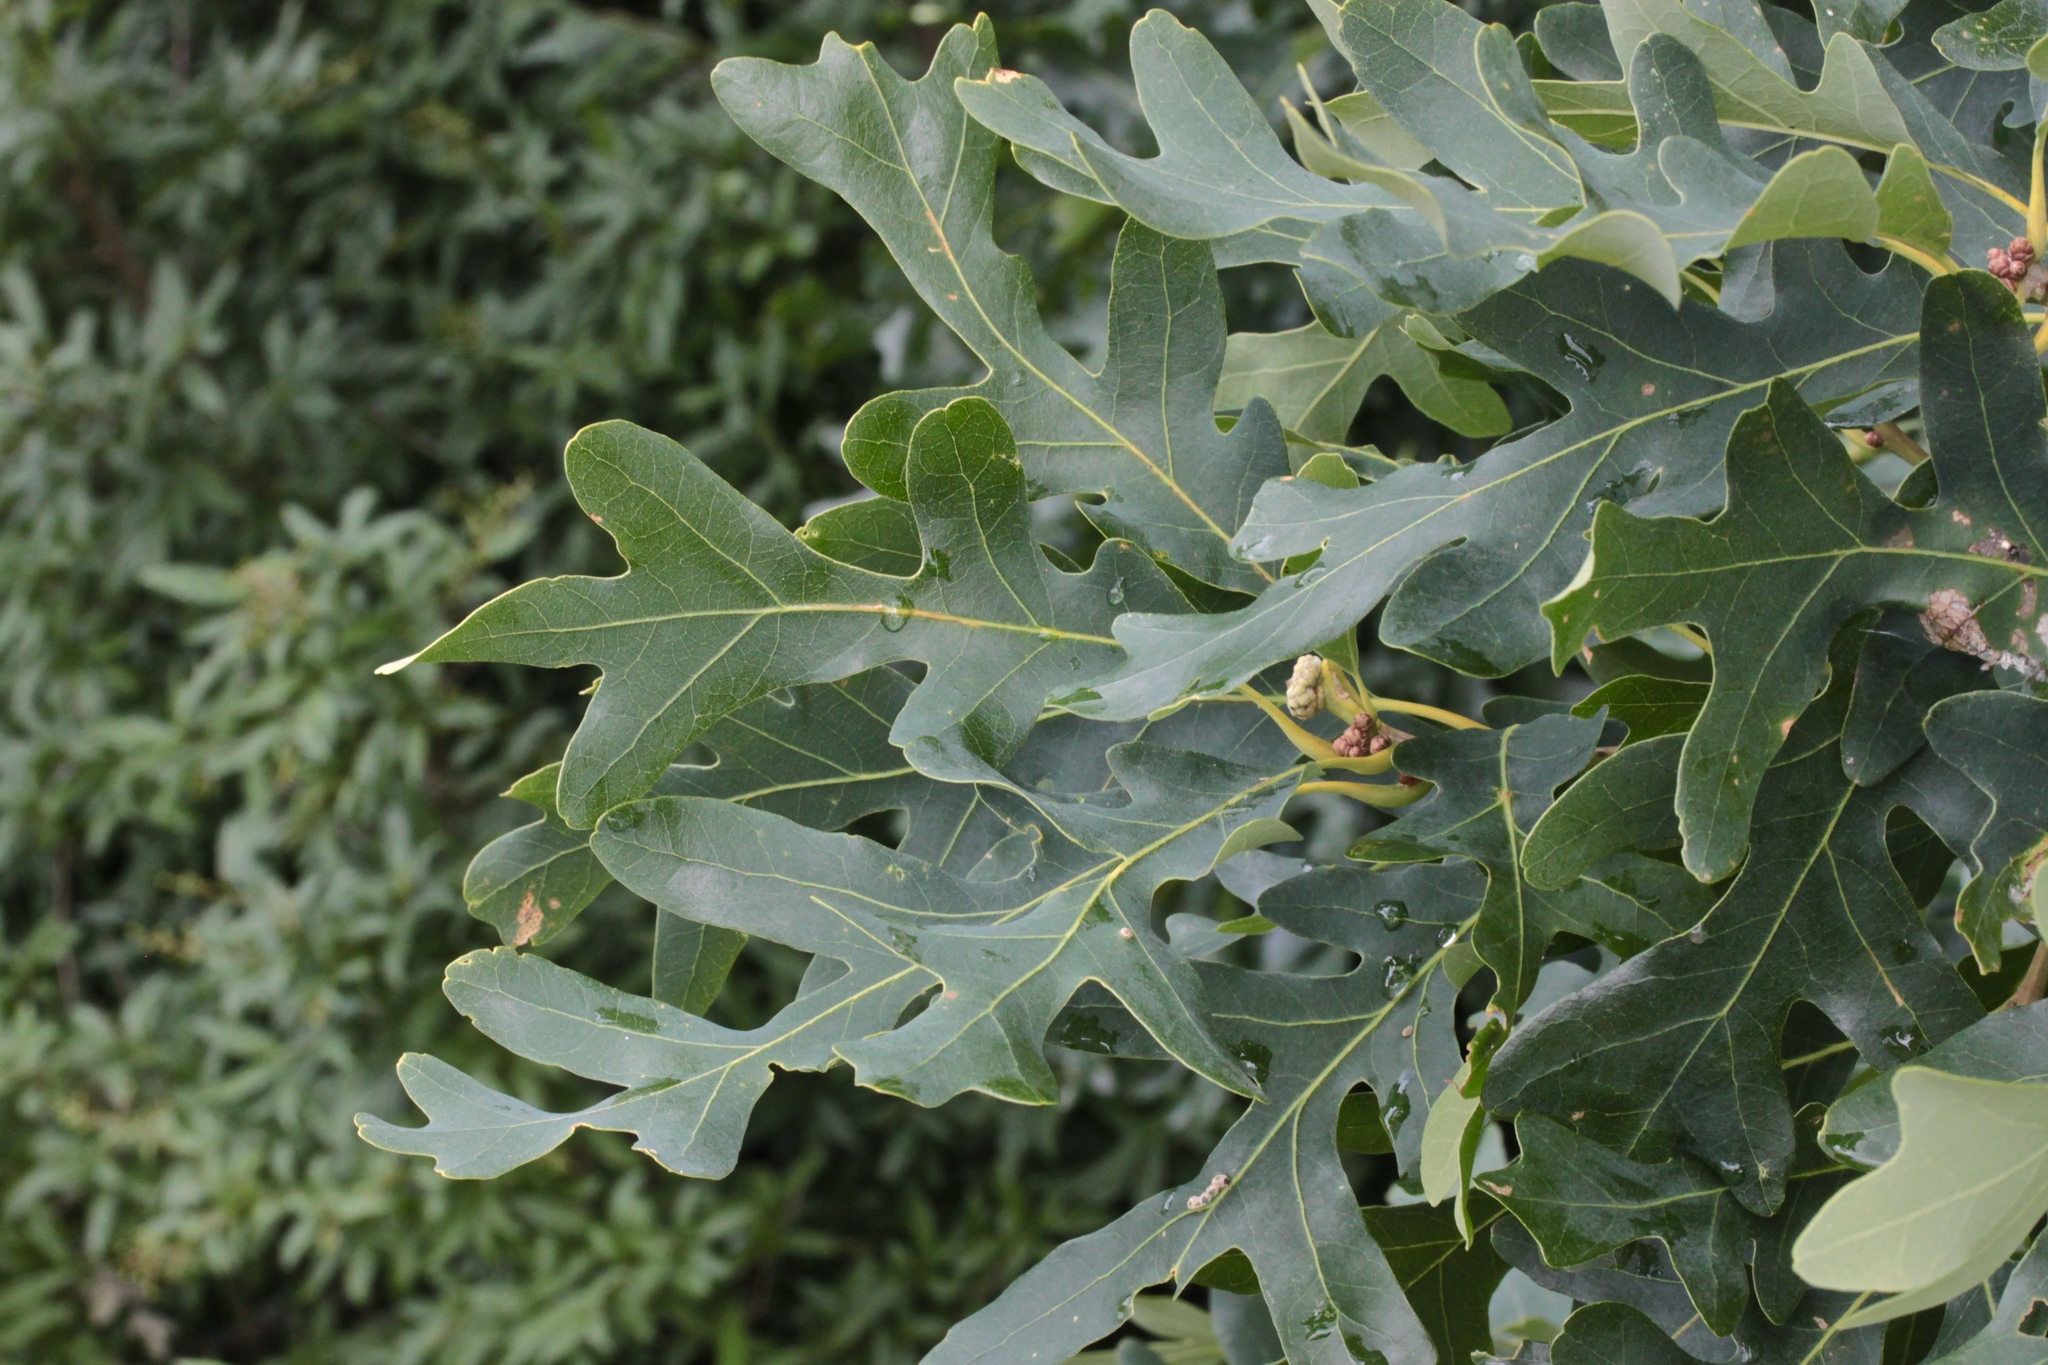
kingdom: Plantae
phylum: Tracheophyta
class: Magnoliopsida
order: Fagales
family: Fagaceae
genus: Quercus
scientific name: Quercus alba
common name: White oak
